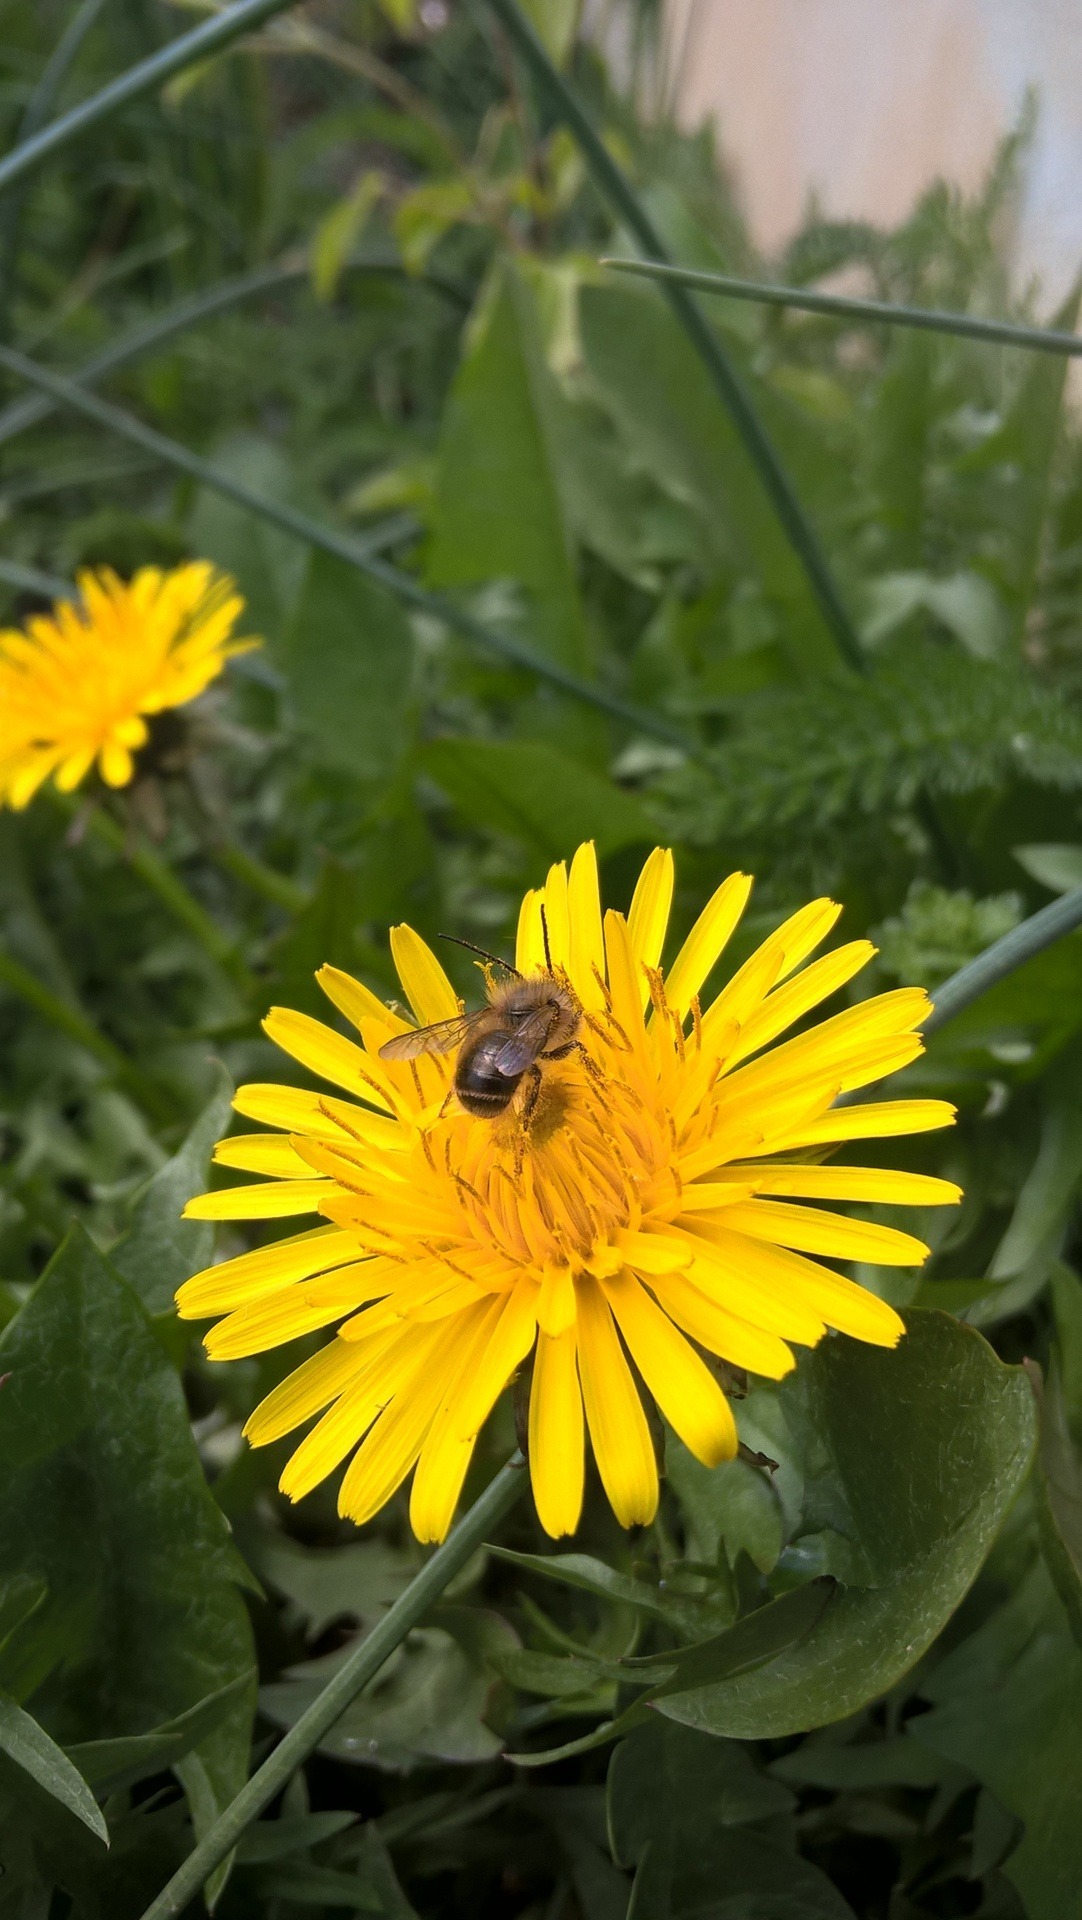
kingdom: Plantae
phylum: Tracheophyta
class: Magnoliopsida
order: Asterales
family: Asteraceae
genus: Taraxacum
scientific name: Taraxacum officinale
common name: Common dandelion
